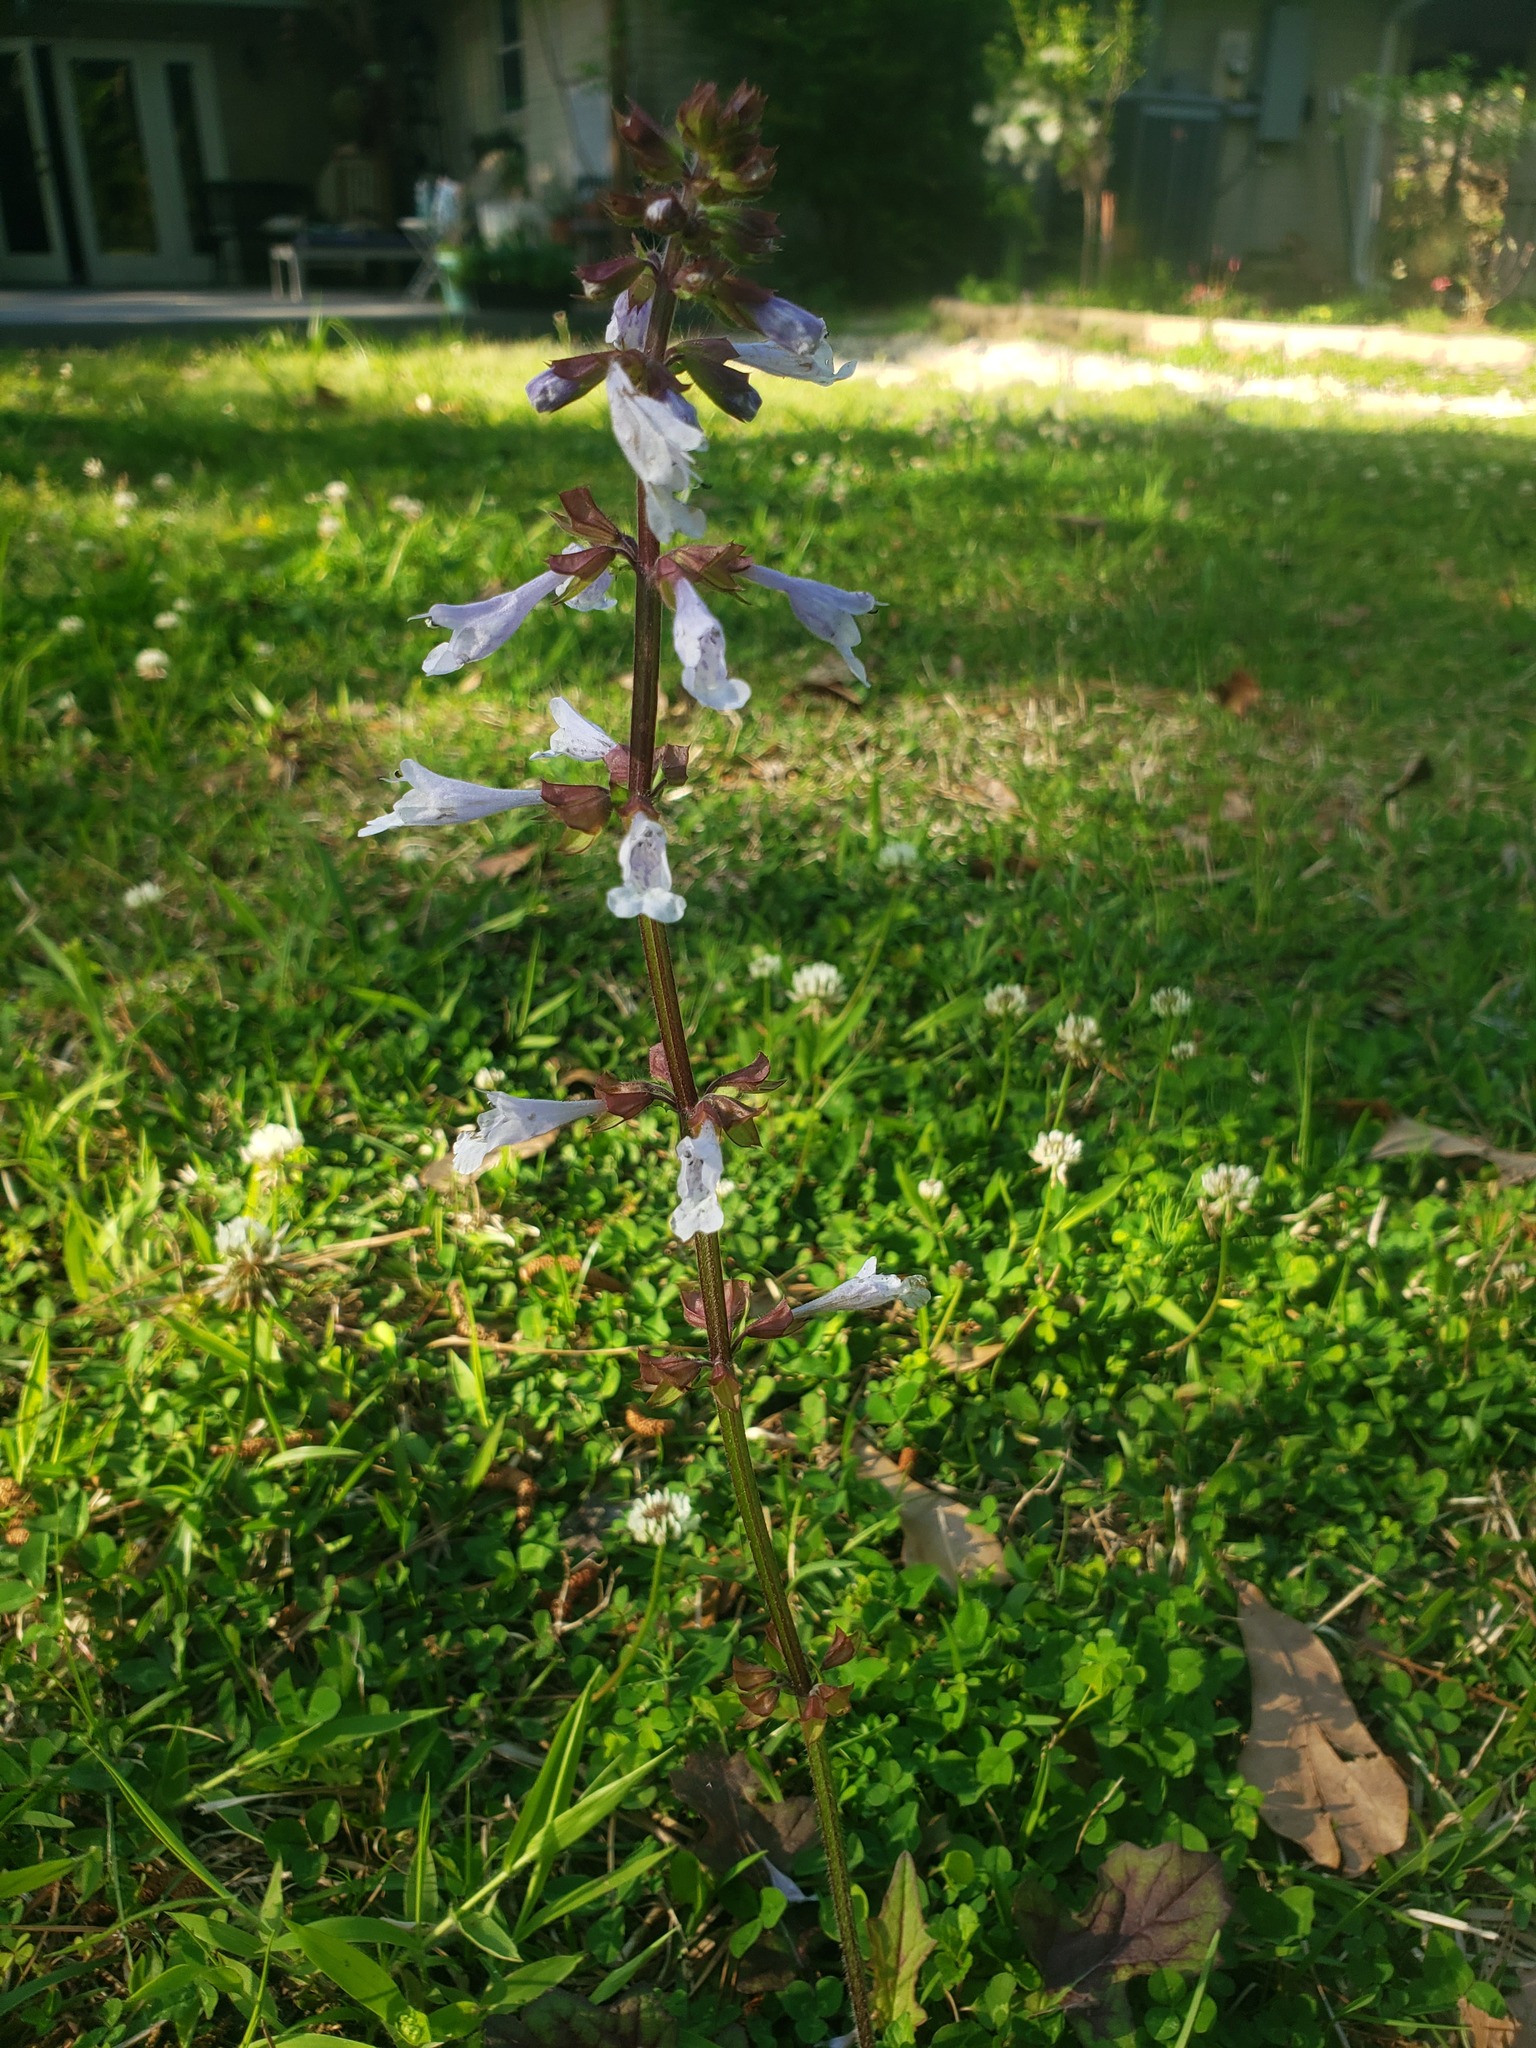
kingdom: Plantae
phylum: Tracheophyta
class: Magnoliopsida
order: Lamiales
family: Lamiaceae
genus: Salvia
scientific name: Salvia lyrata
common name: Cancerweed
